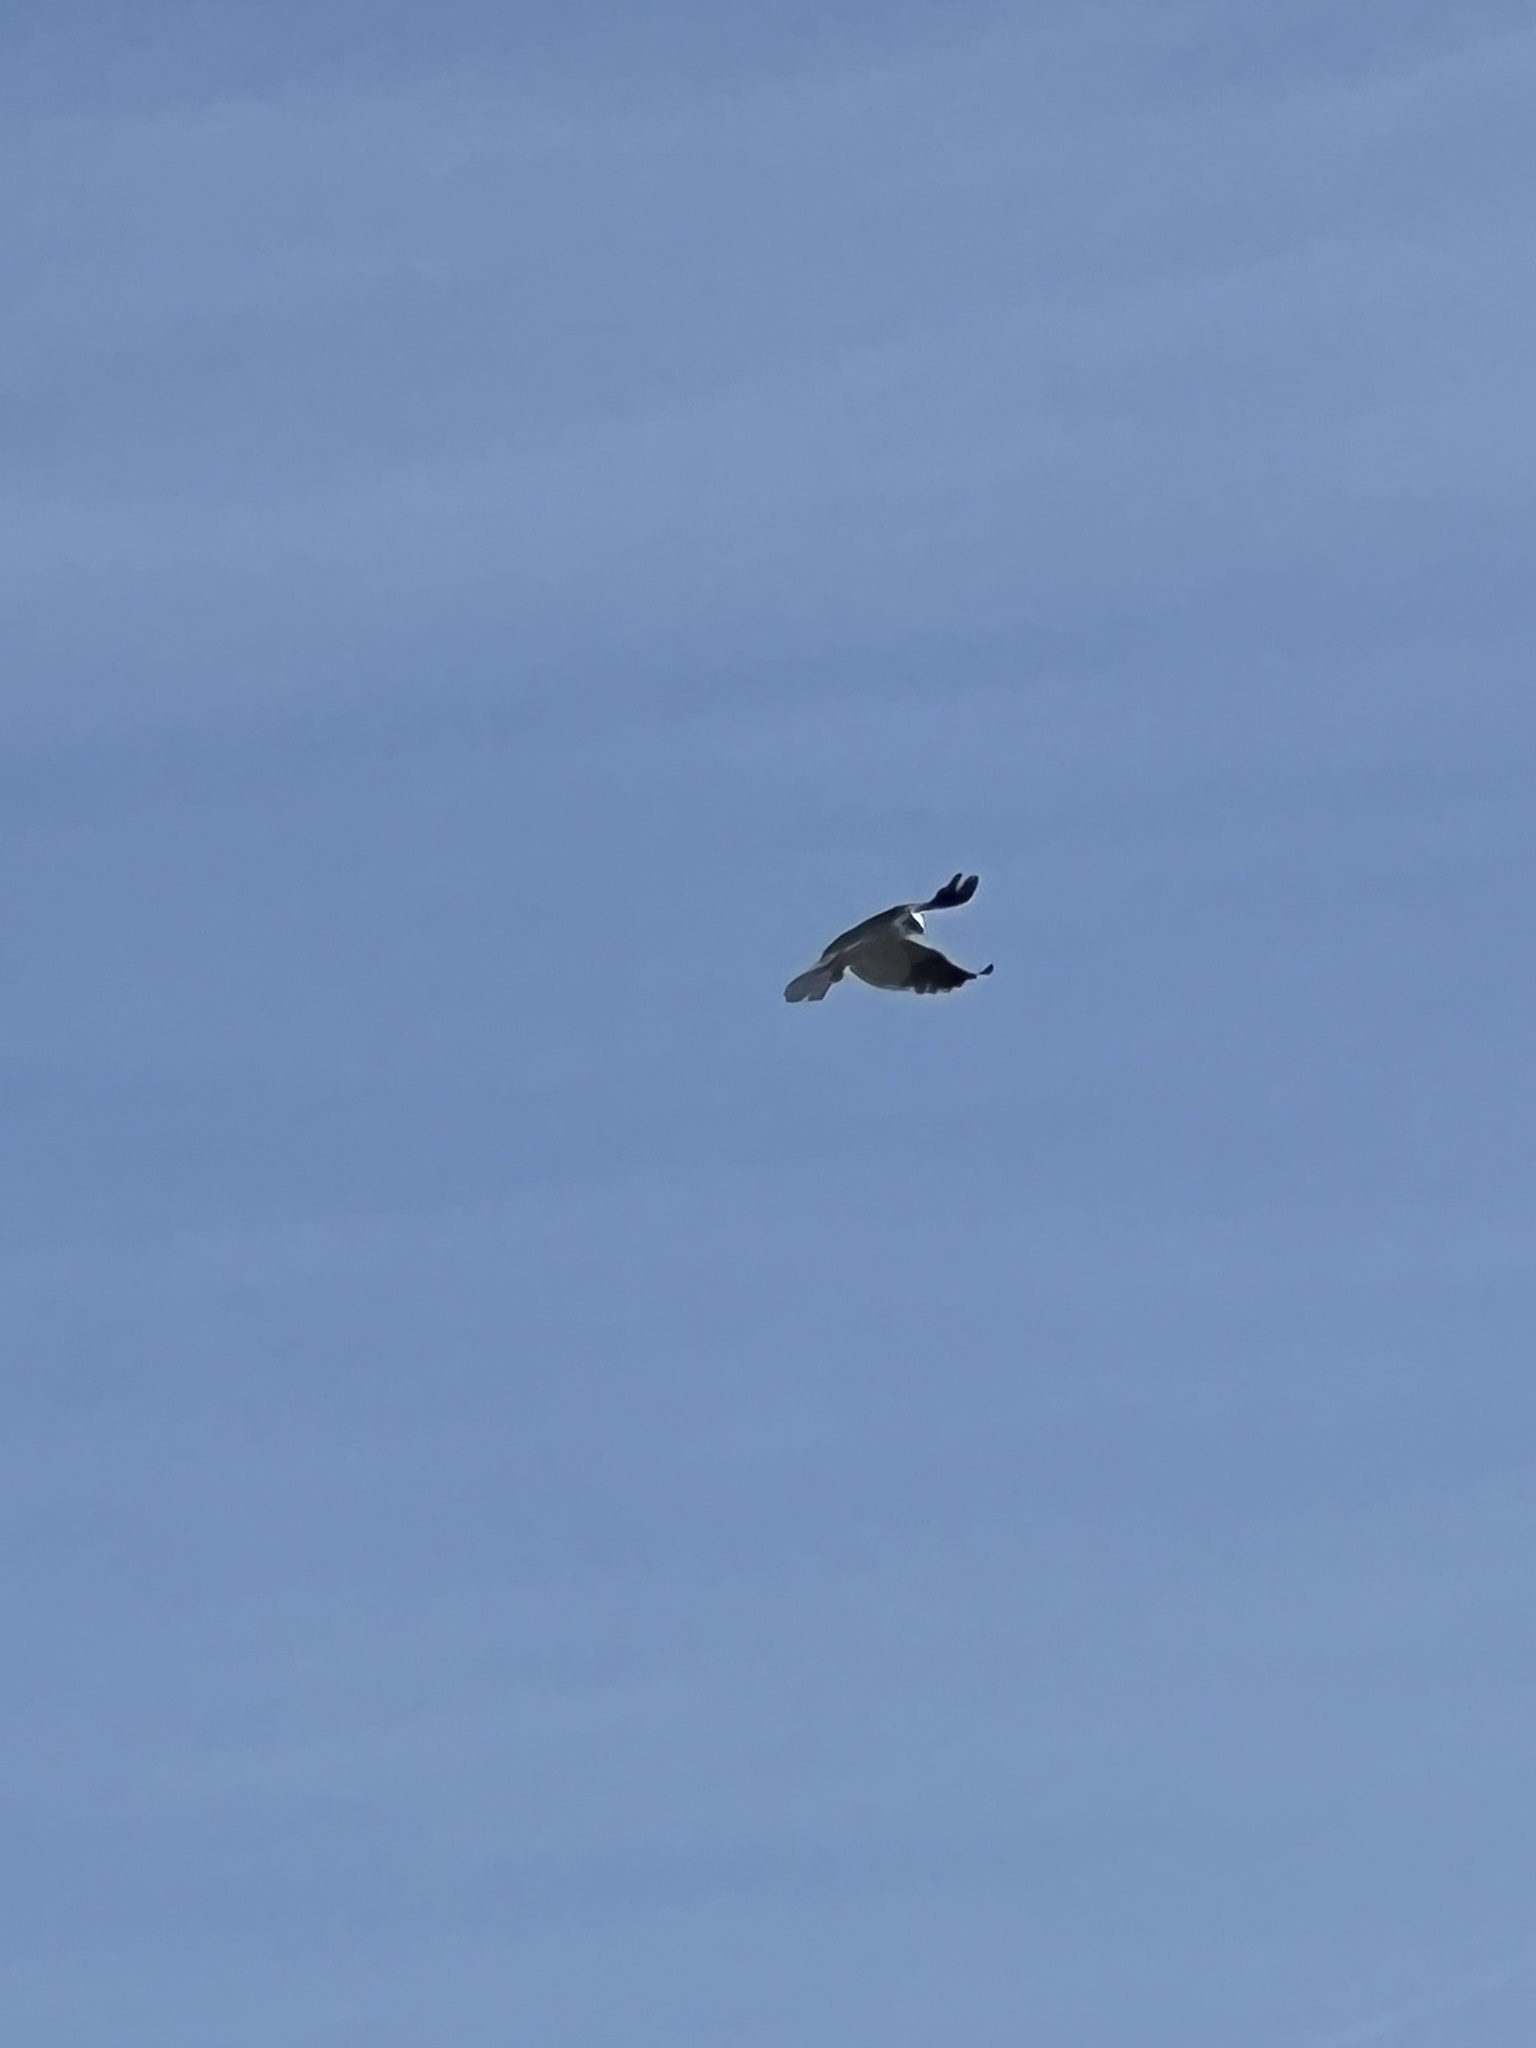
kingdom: Animalia
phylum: Chordata
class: Aves
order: Accipitriformes
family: Accipitridae
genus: Elanus
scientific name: Elanus leucurus
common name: White-tailed kite
